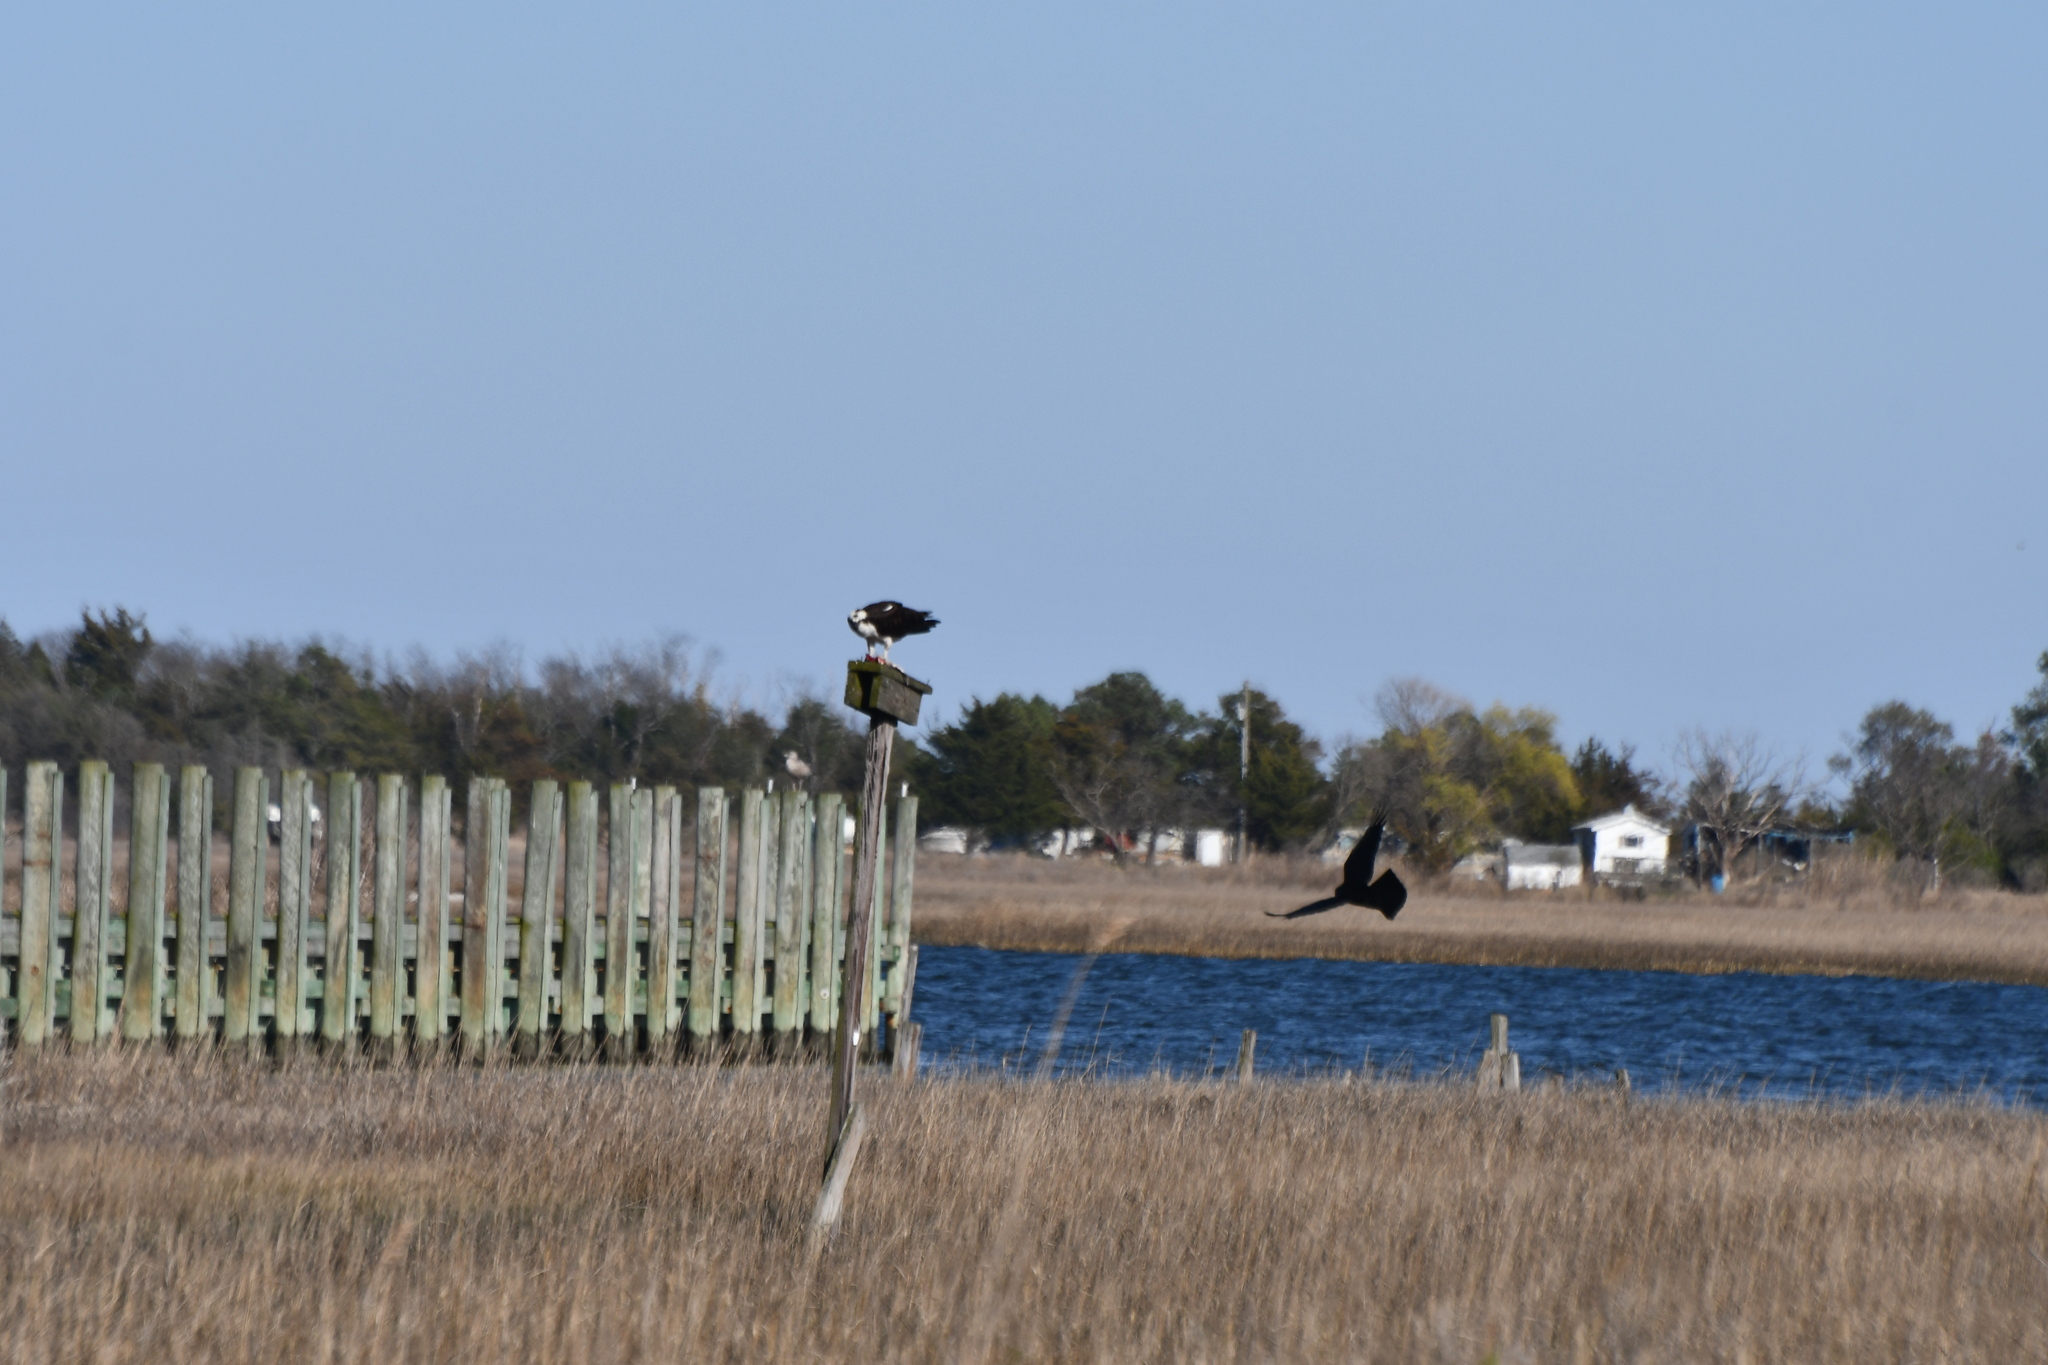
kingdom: Animalia
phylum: Chordata
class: Aves
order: Accipitriformes
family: Pandionidae
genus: Pandion
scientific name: Pandion haliaetus
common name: Osprey
